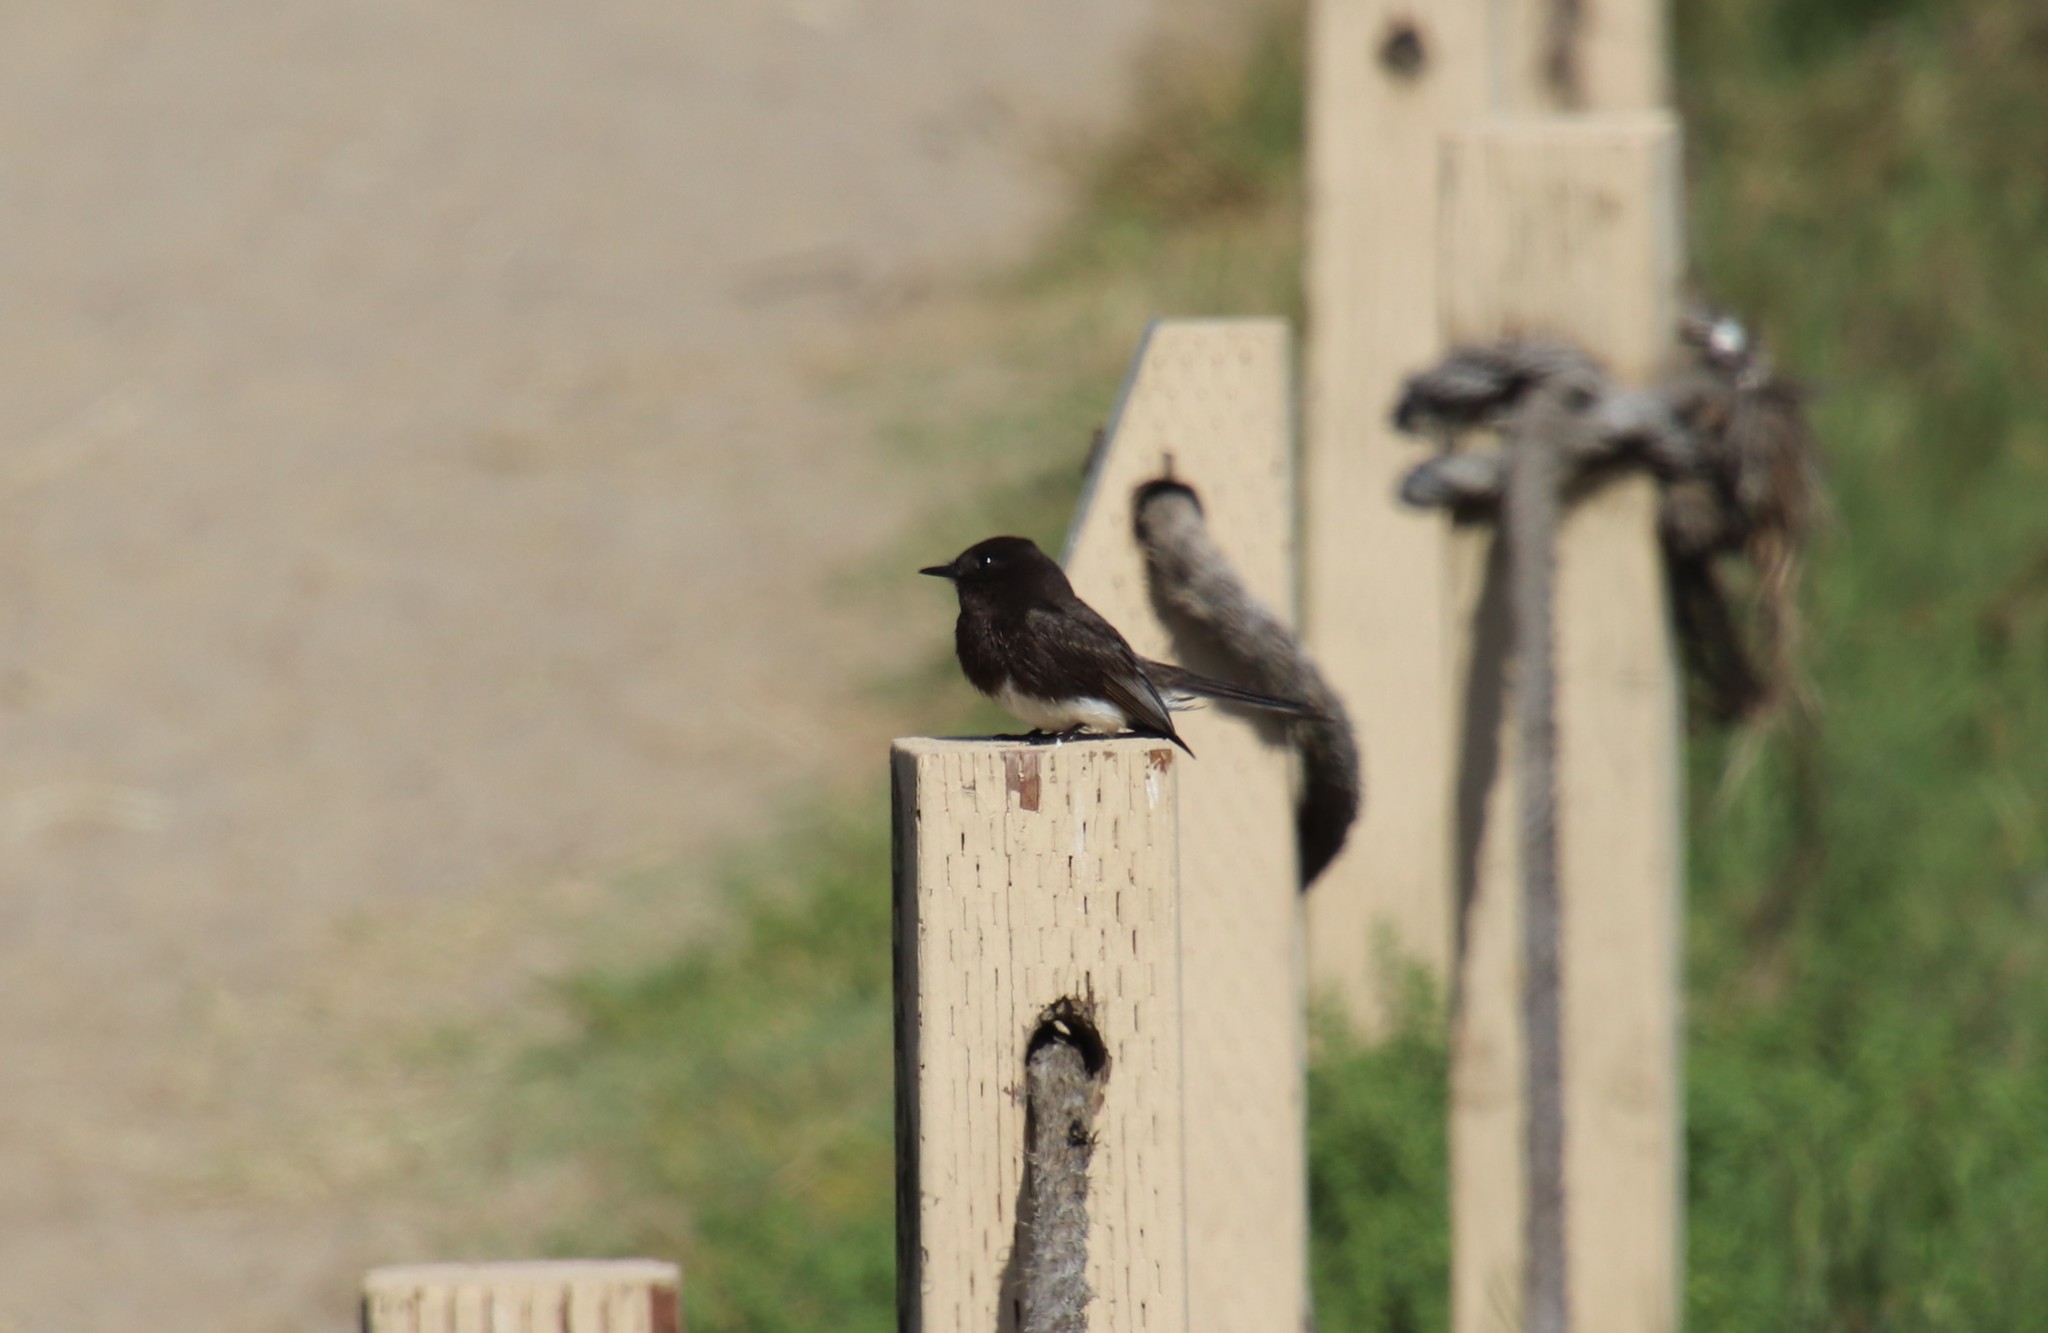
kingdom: Animalia
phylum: Chordata
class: Aves
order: Passeriformes
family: Tyrannidae
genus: Sayornis
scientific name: Sayornis nigricans
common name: Black phoebe
